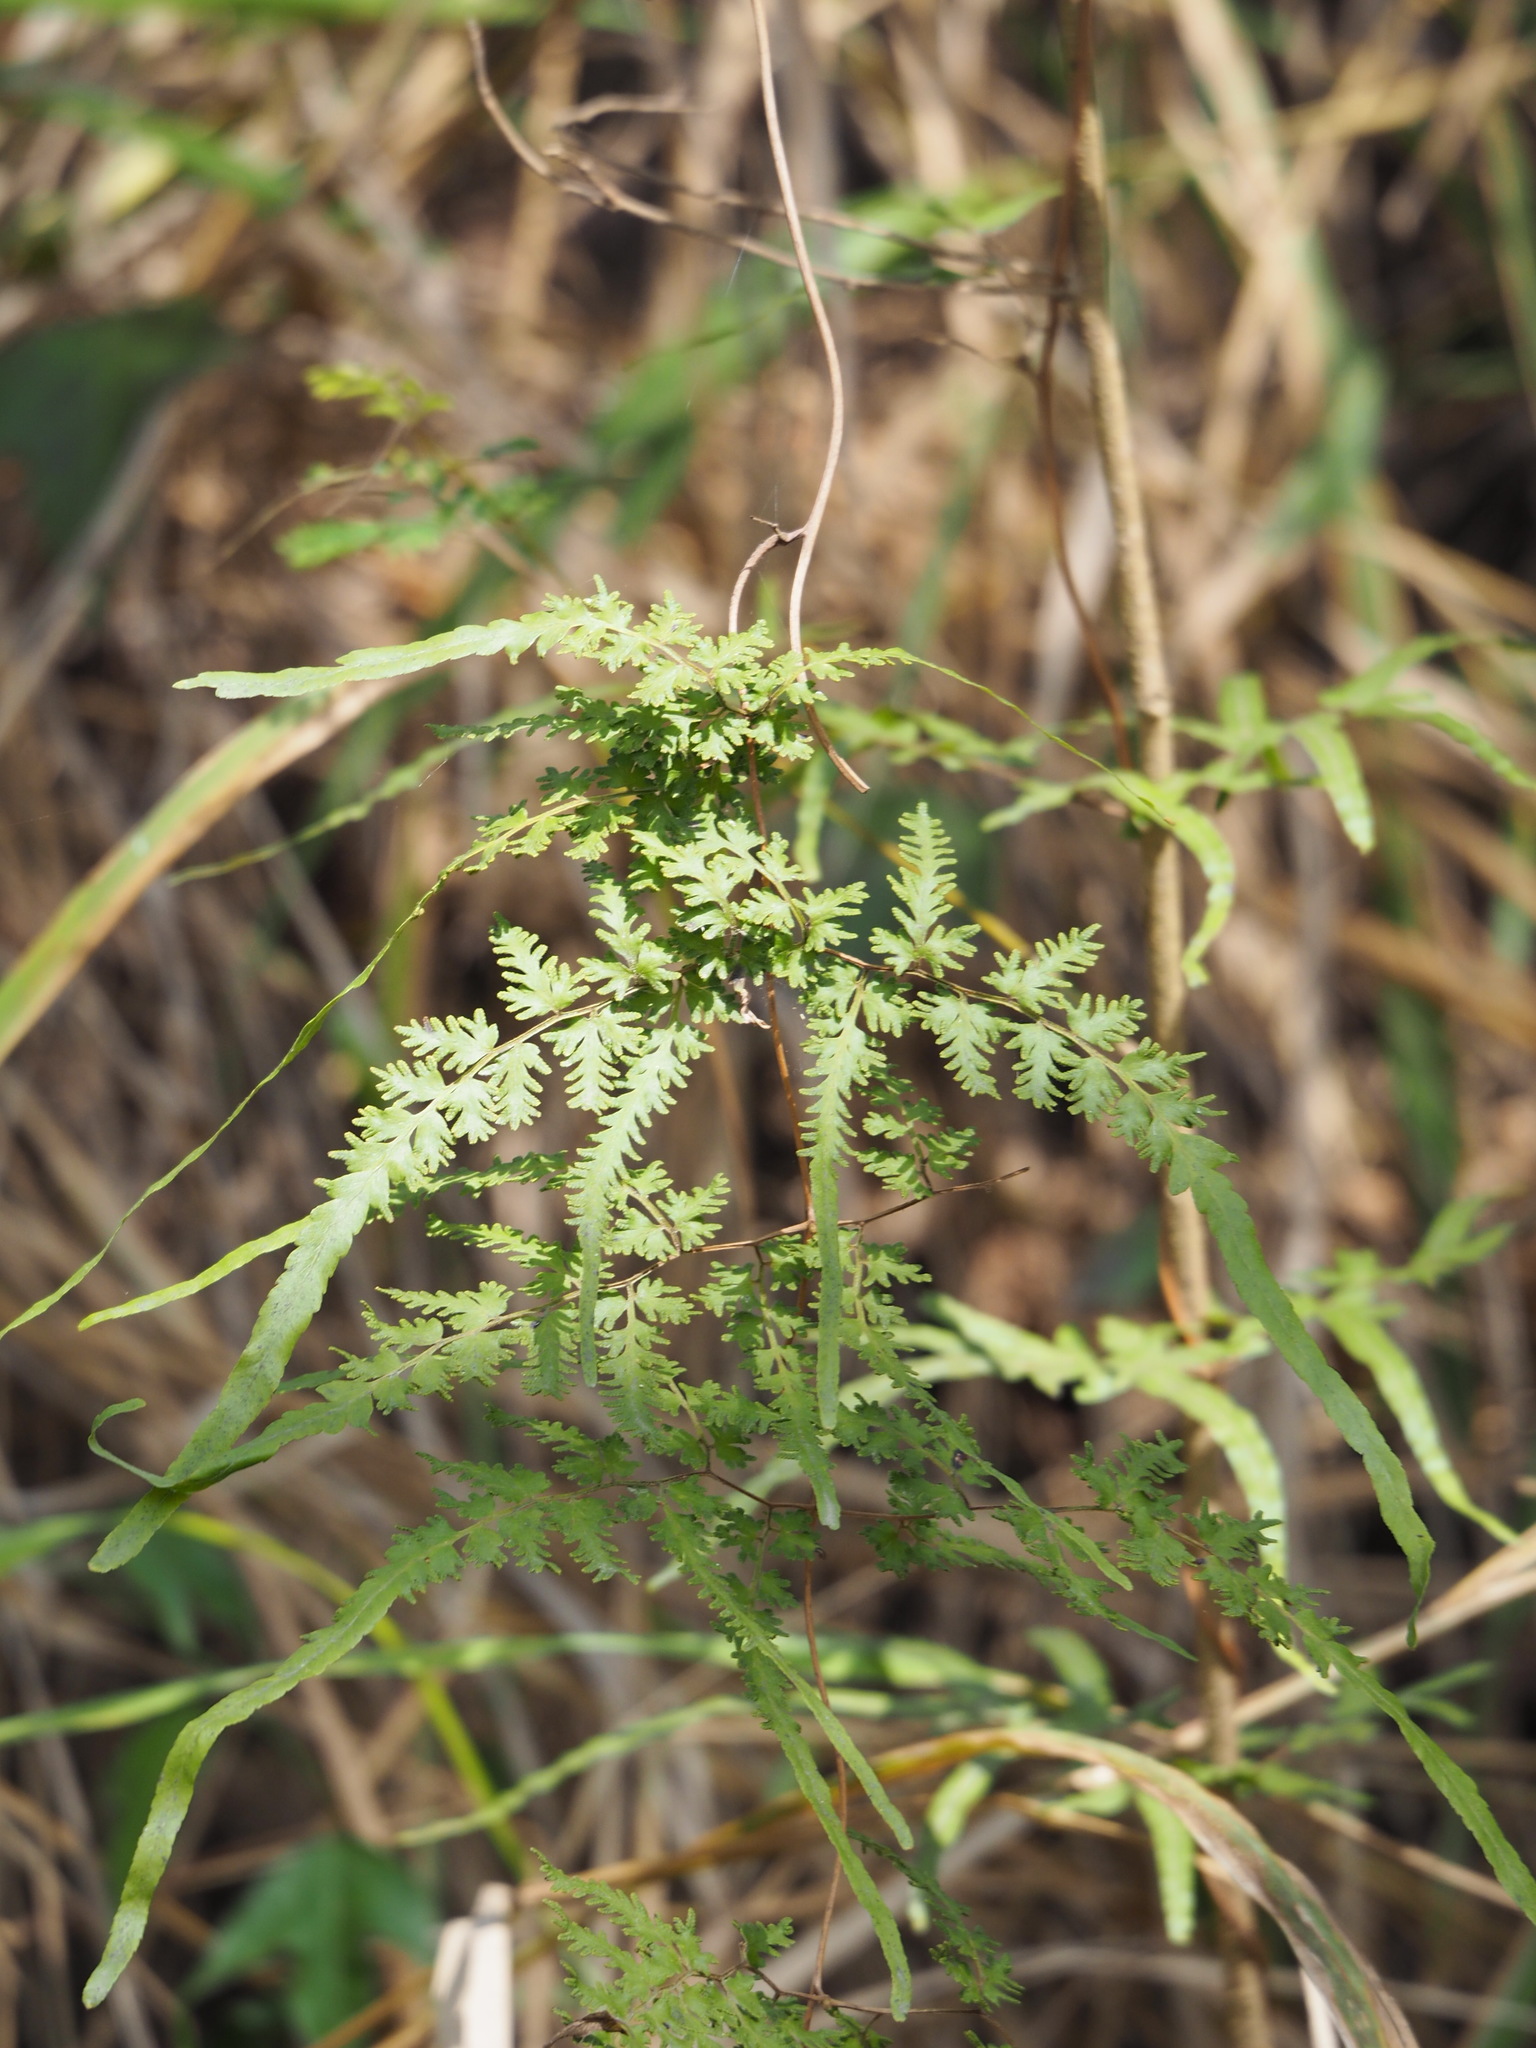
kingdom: Plantae
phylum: Tracheophyta
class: Polypodiopsida
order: Schizaeales
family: Lygodiaceae
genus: Lygodium
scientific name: Lygodium japonicum
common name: Japanese climbing fern
